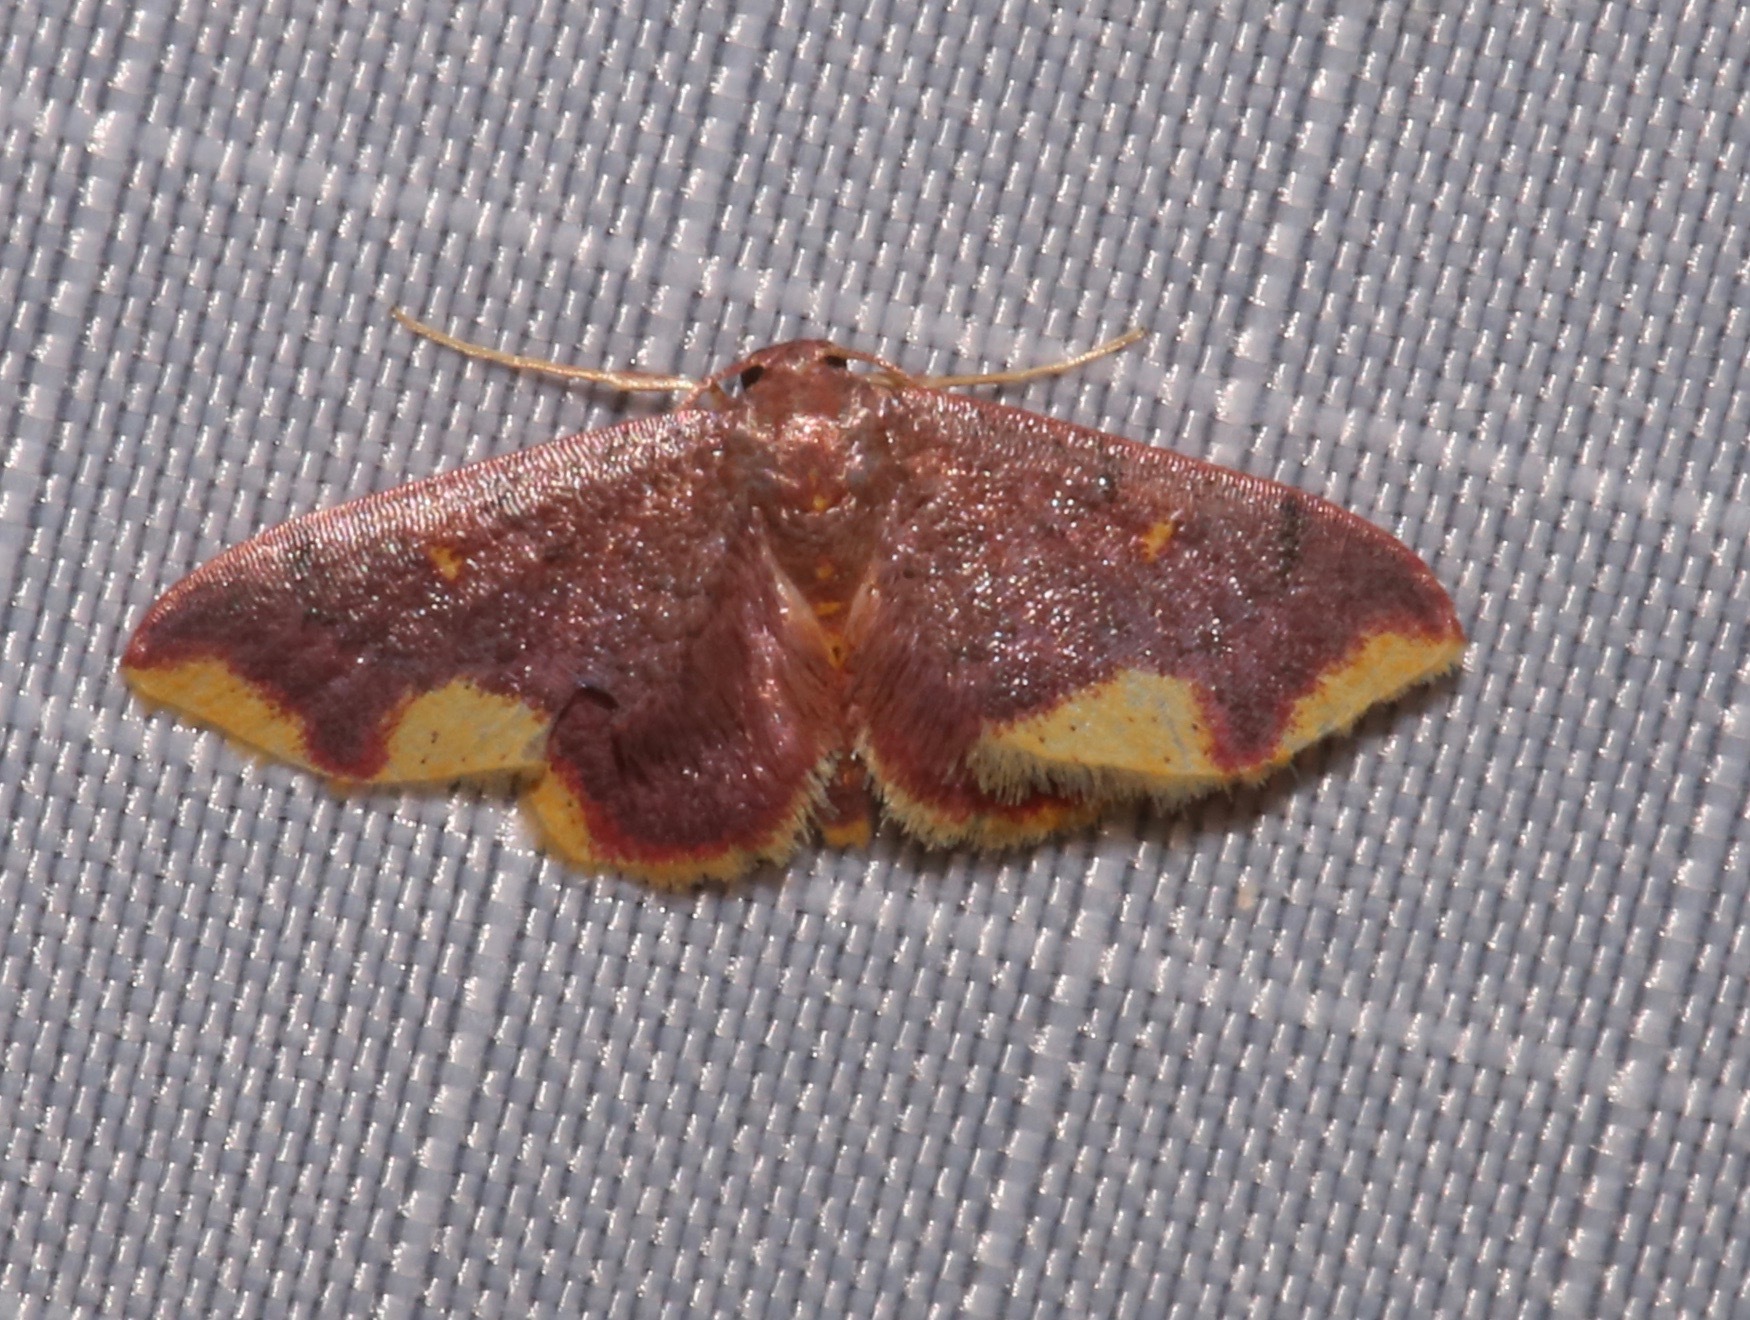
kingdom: Animalia
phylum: Arthropoda
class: Insecta
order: Lepidoptera
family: Geometridae
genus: Lophosis
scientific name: Lophosis labeculata
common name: Stained lophosis moth
